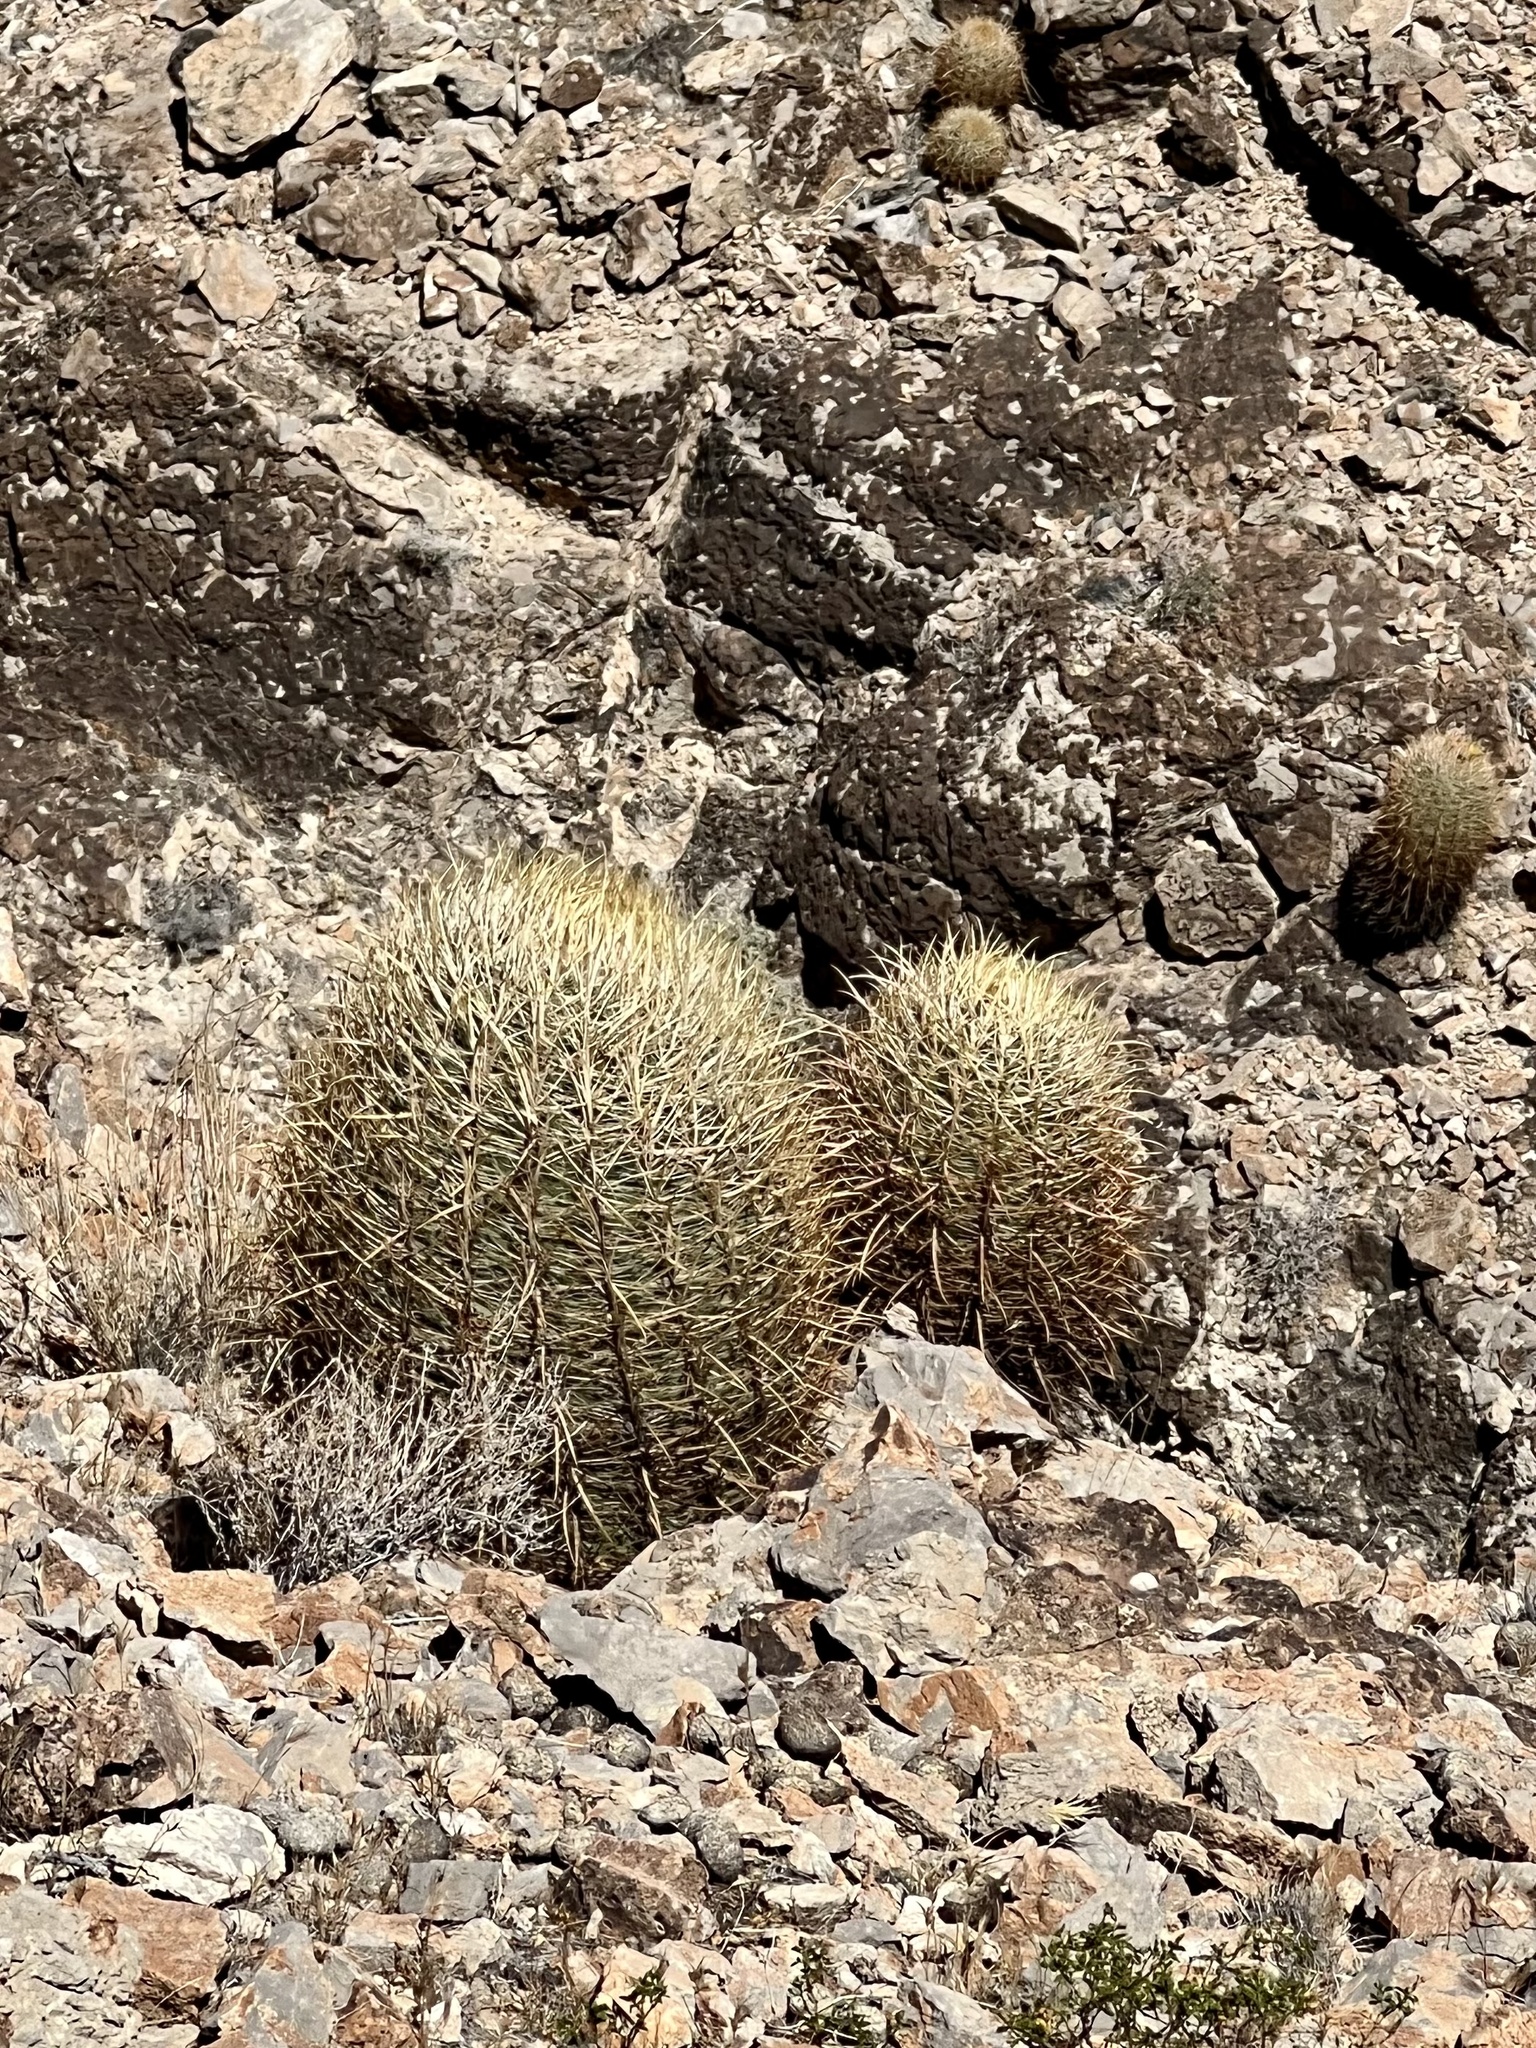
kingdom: Plantae
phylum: Tracheophyta
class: Magnoliopsida
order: Caryophyllales
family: Cactaceae
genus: Ferocactus
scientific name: Ferocactus cylindraceus
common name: California barrel cactus
